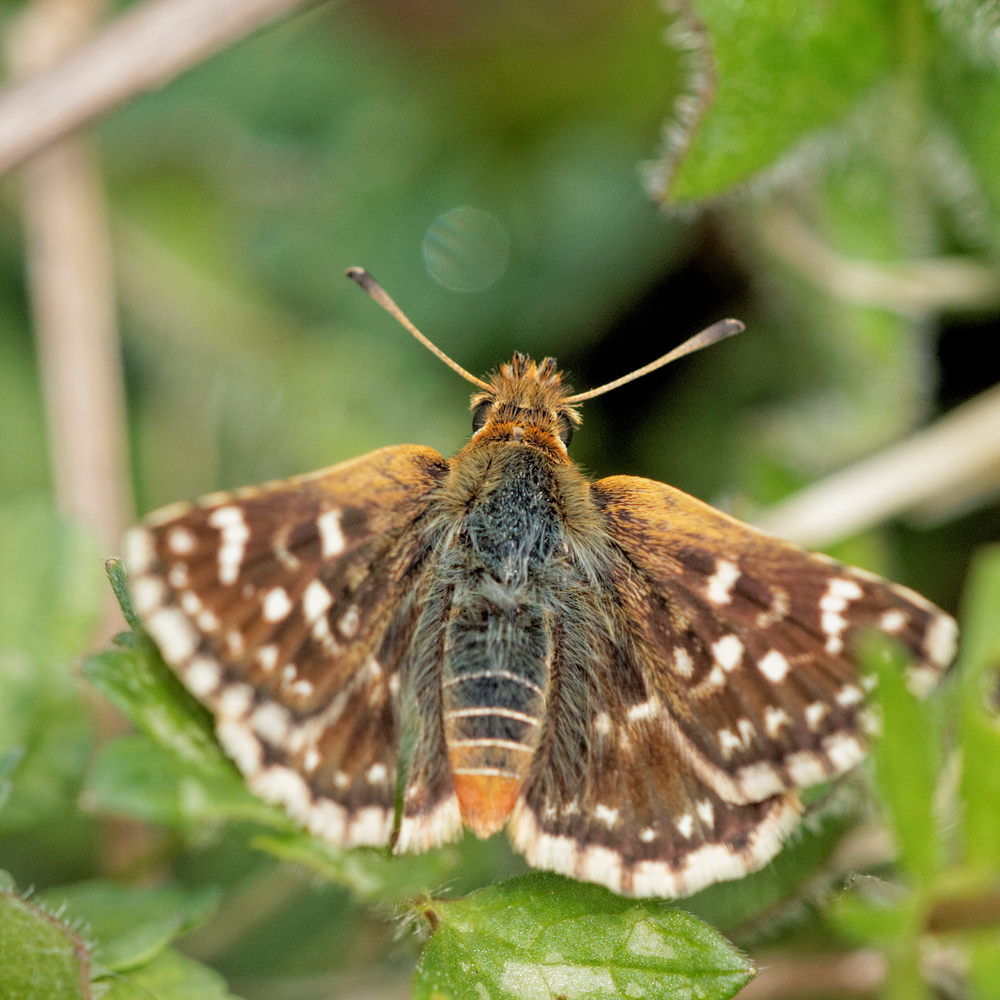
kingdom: Animalia
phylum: Arthropoda
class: Insecta
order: Lepidoptera
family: Hesperiidae
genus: Spialia
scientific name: Spialia sertorius
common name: Red underwing skipper
